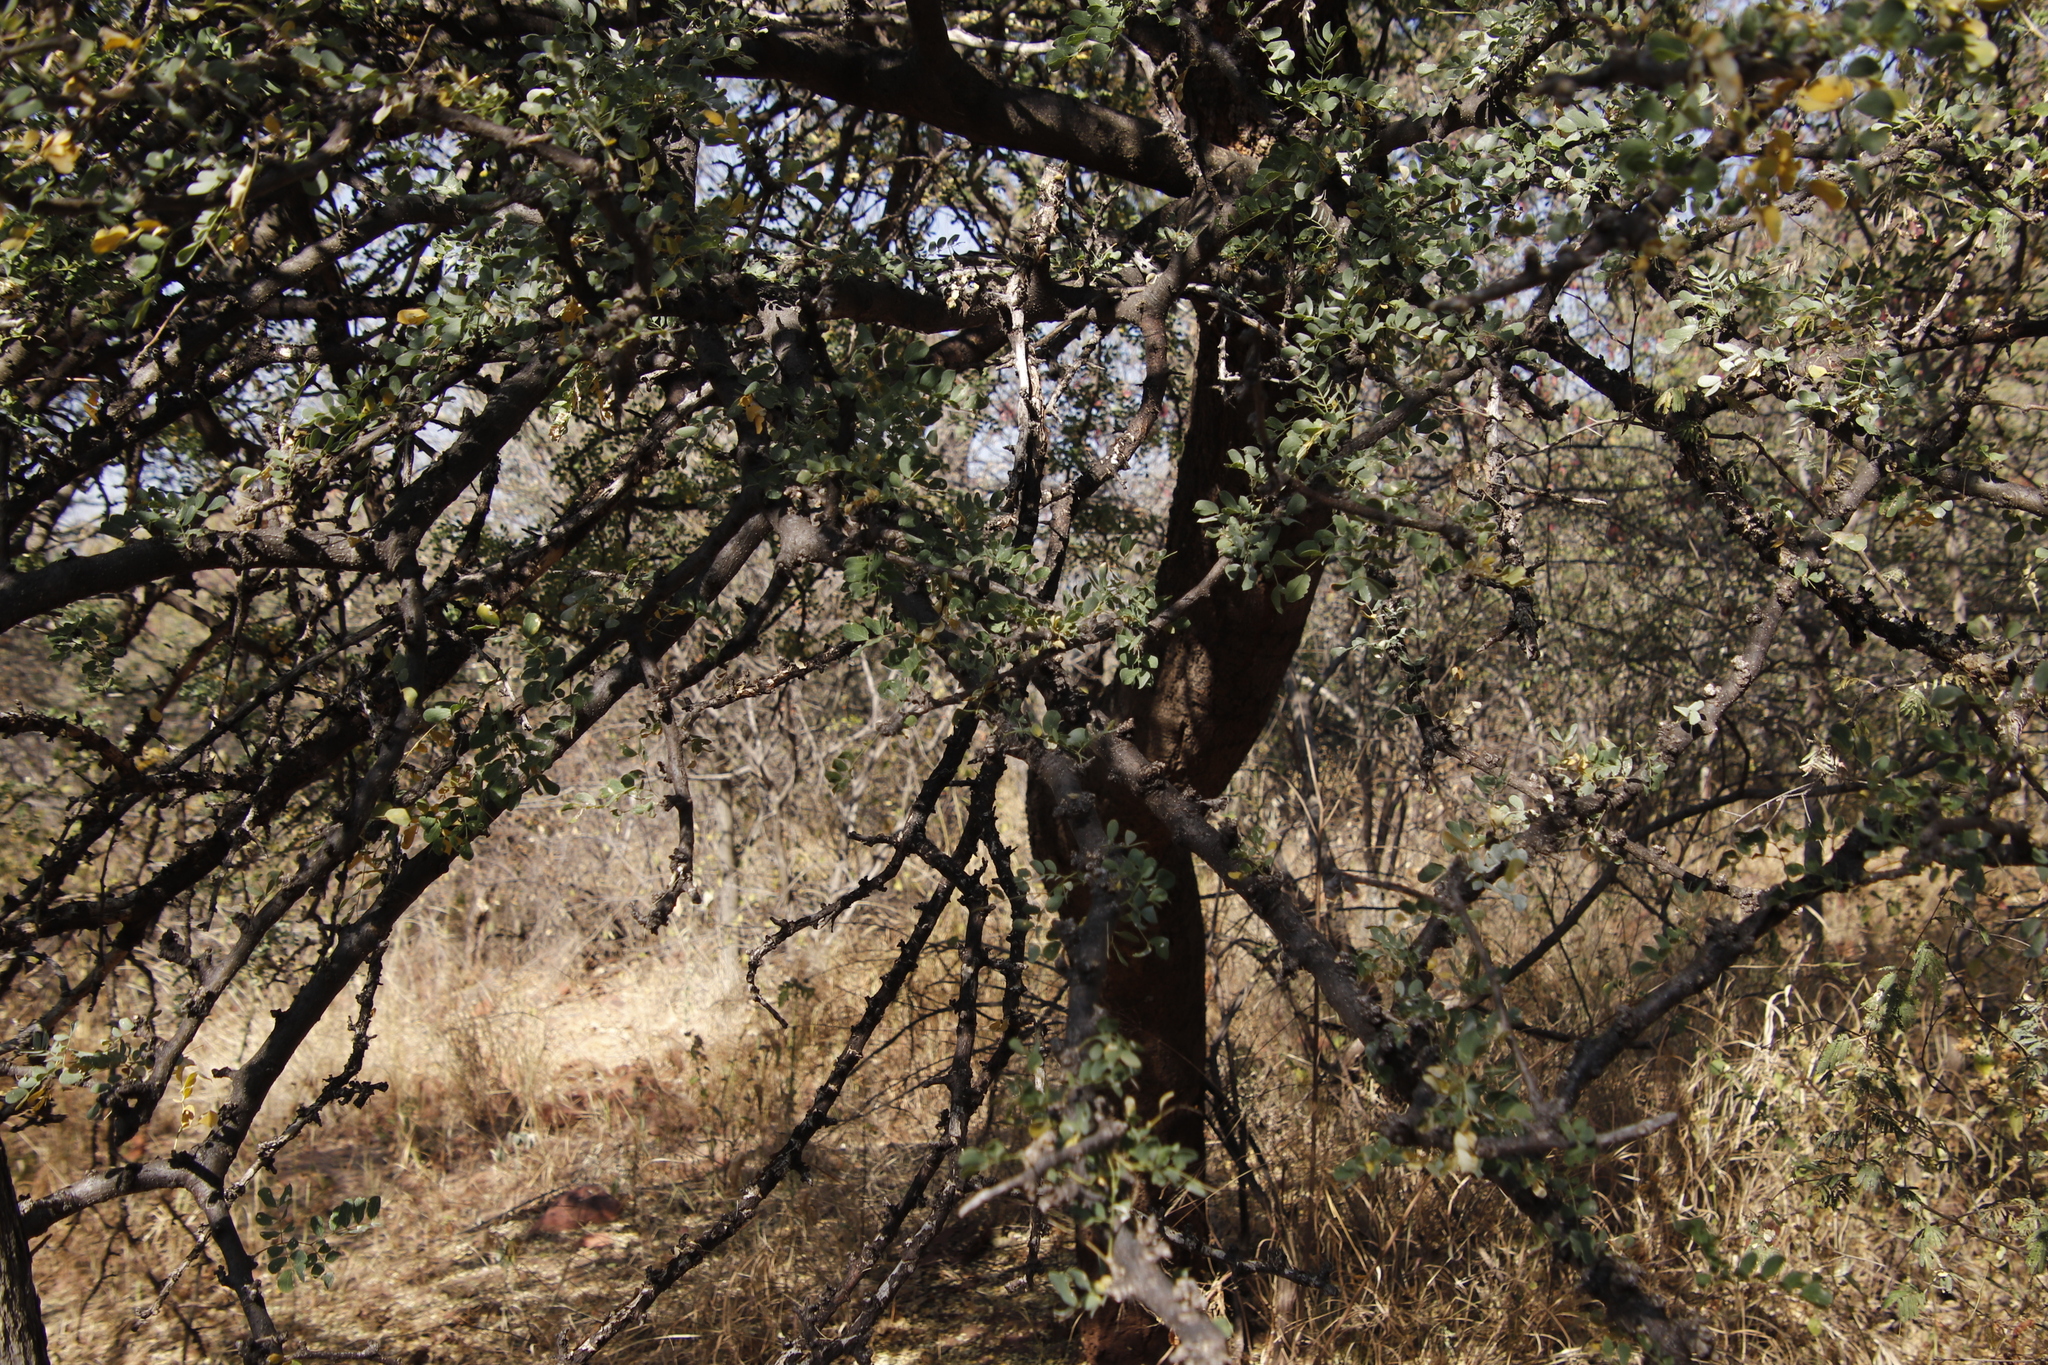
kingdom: Plantae
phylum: Tracheophyta
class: Magnoliopsida
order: Fabales
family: Fabaceae
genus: Albizia
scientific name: Albizia anthelmintica
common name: Worm-bark false-thorn
